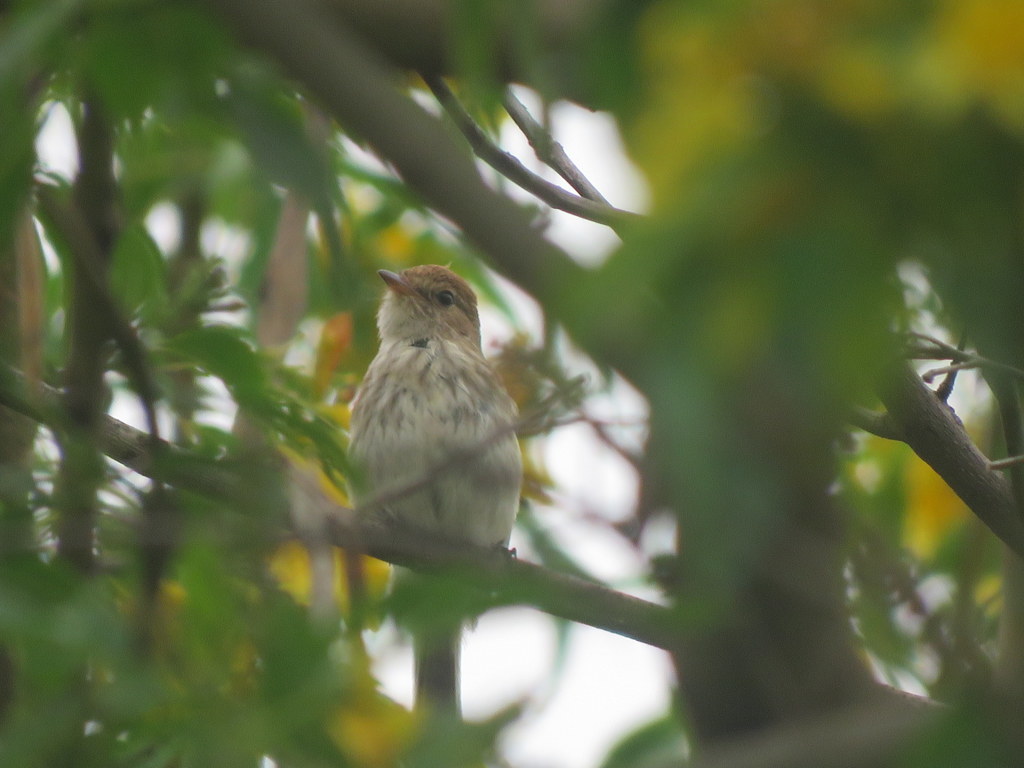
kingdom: Animalia
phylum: Chordata
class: Aves
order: Passeriformes
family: Tyrannidae
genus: Myiophobus
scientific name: Myiophobus fasciatus
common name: Bran-colored flycatcher
